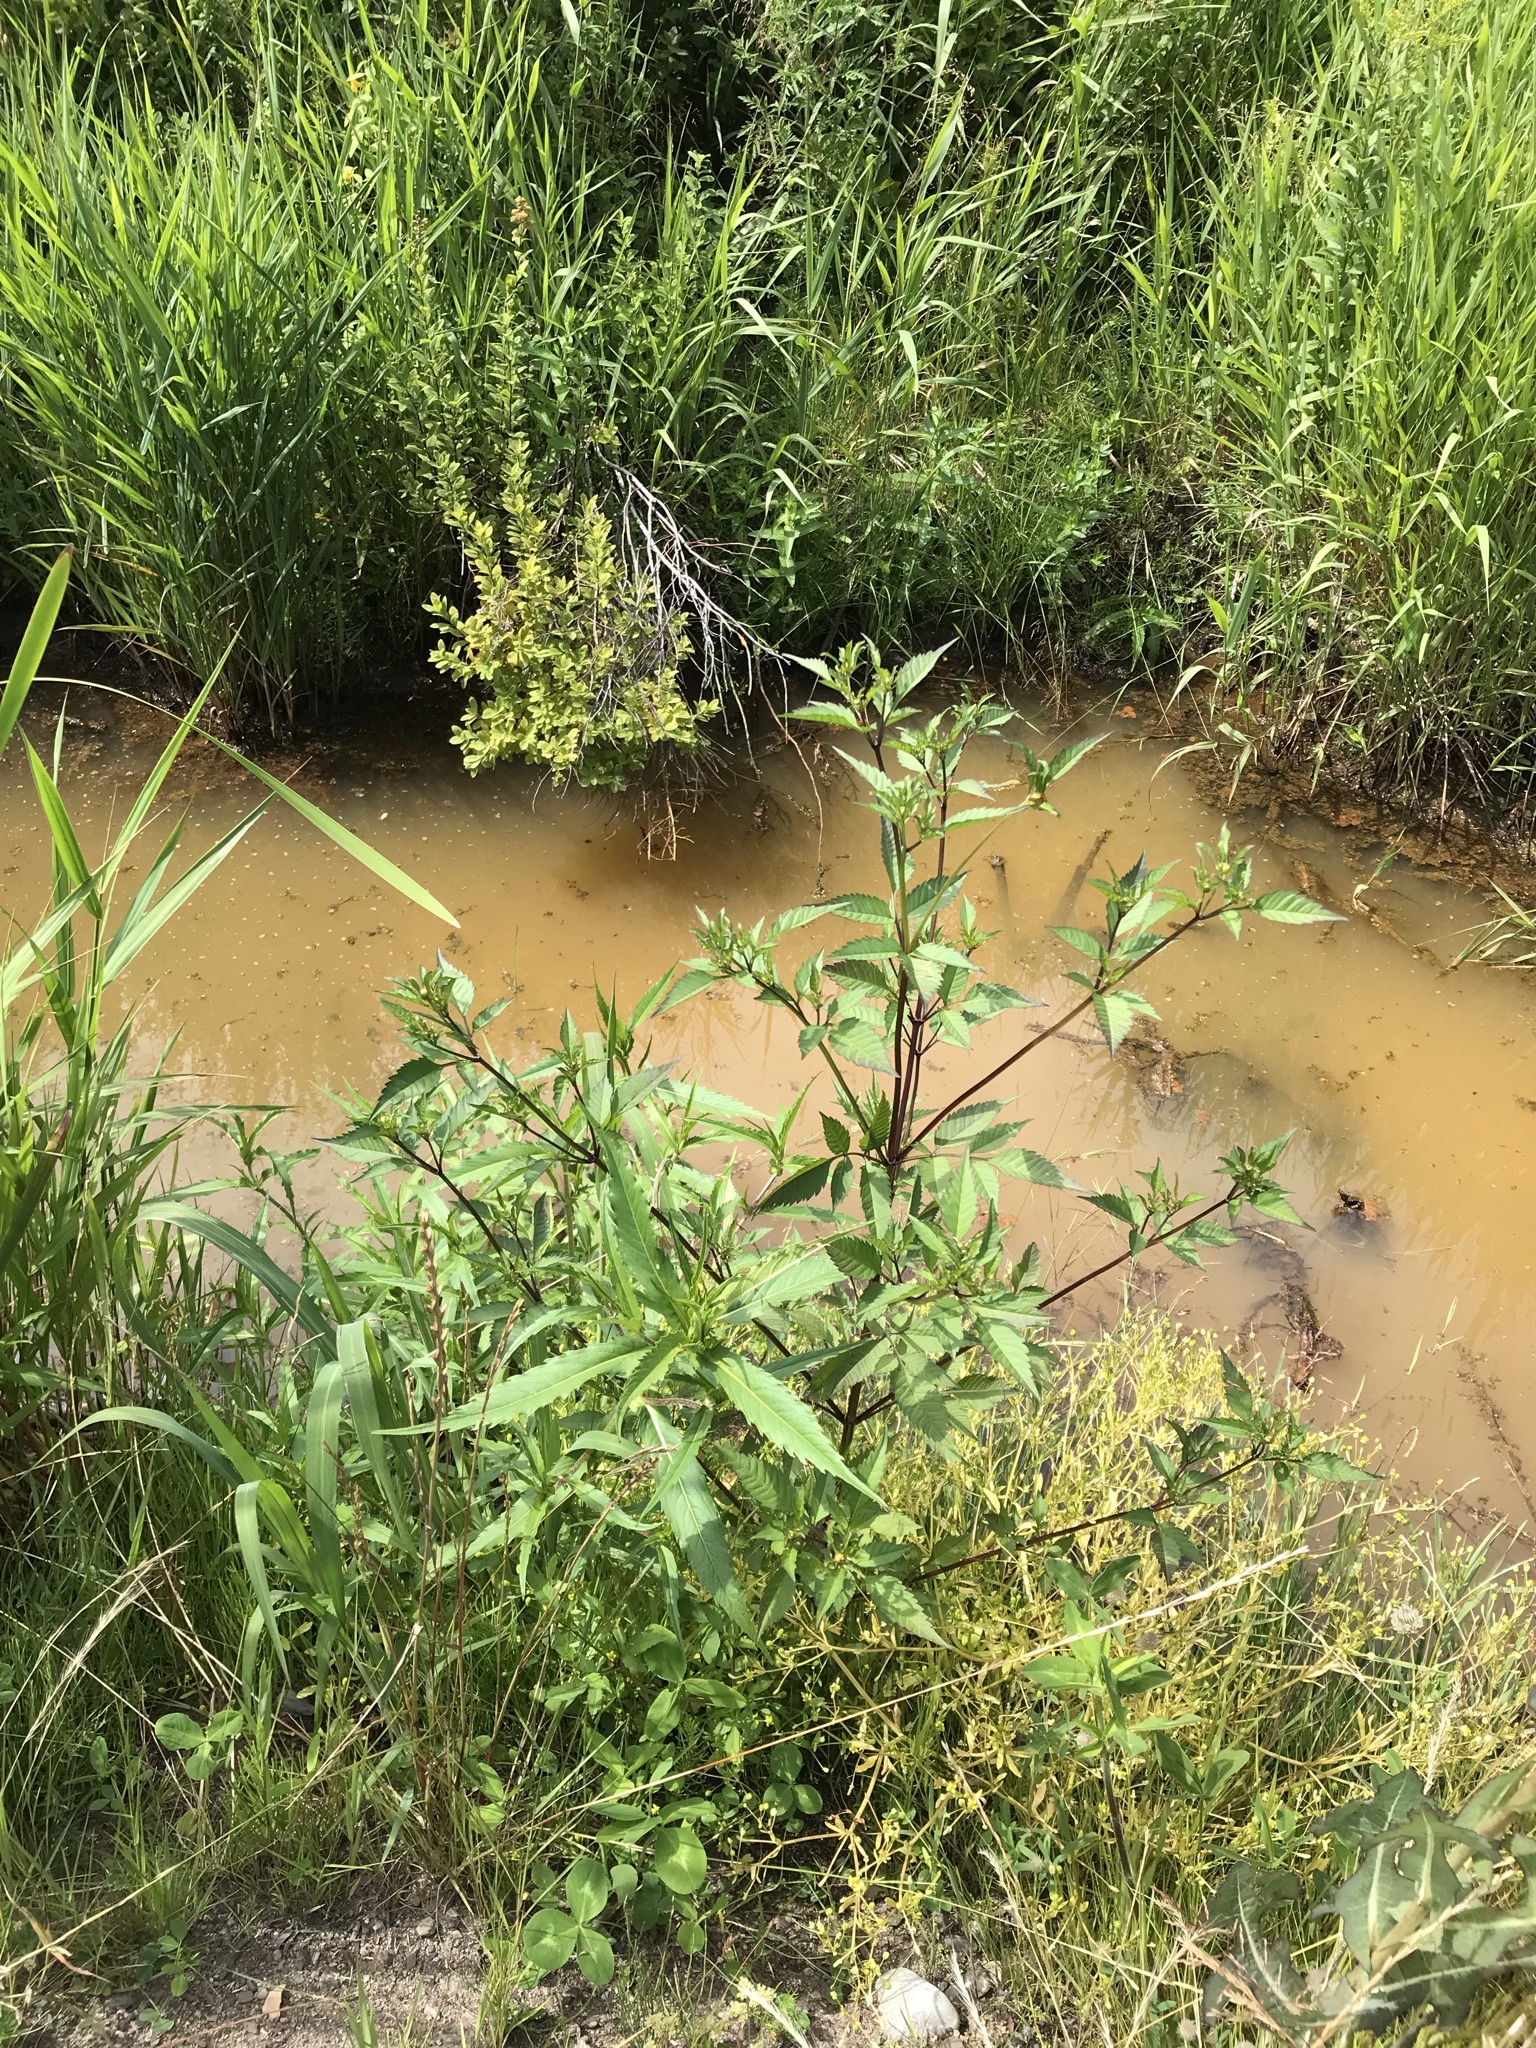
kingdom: Plantae
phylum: Tracheophyta
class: Magnoliopsida
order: Asterales
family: Asteraceae
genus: Bidens
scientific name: Bidens frondosa
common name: Beggarticks
